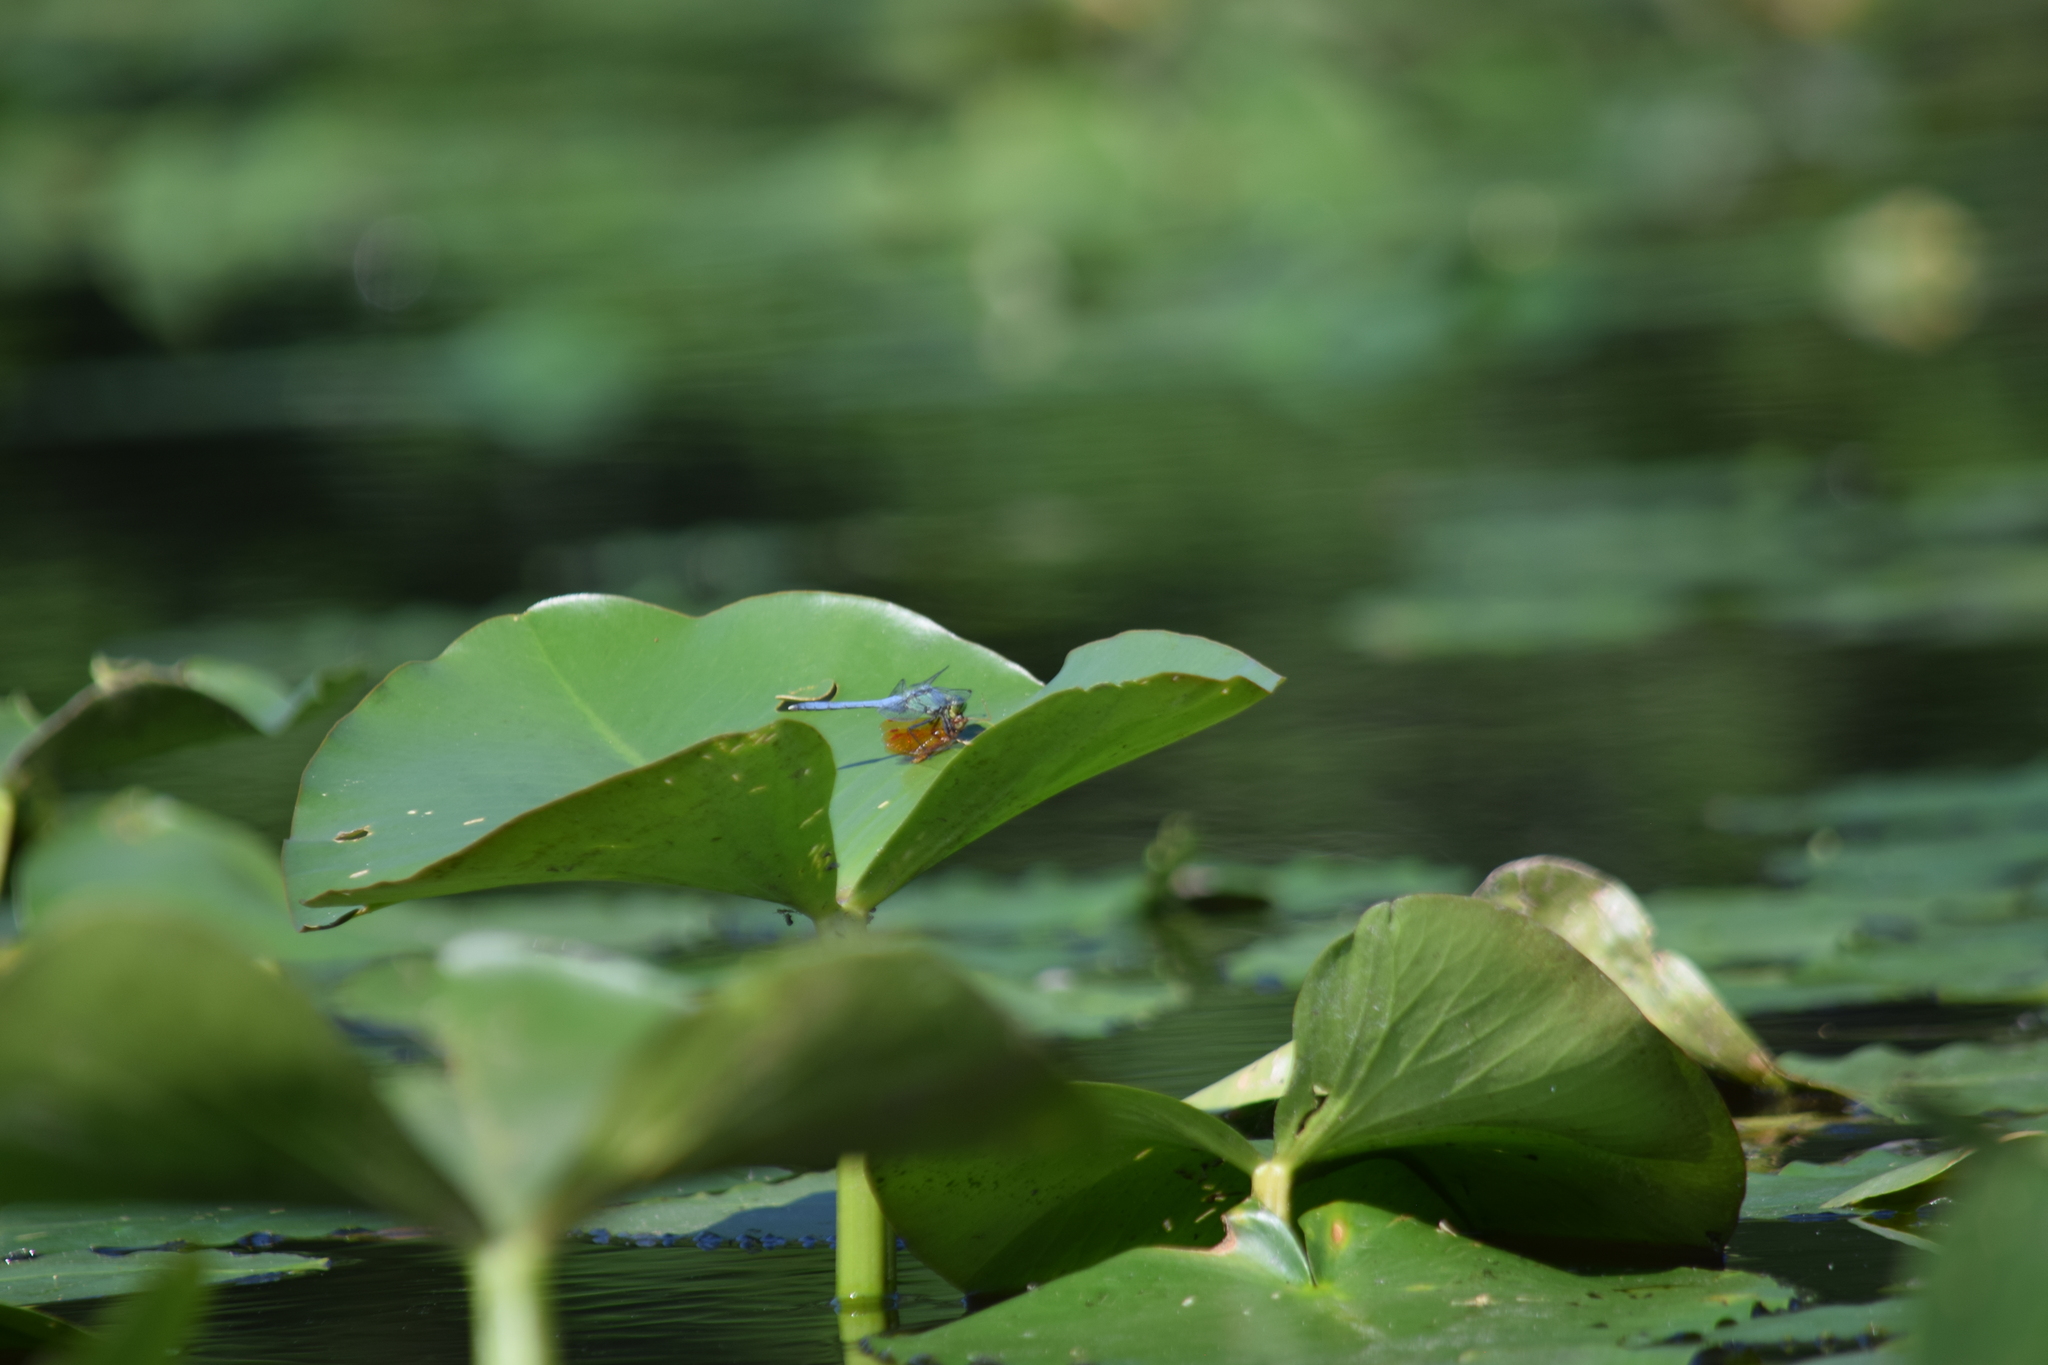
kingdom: Animalia
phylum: Arthropoda
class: Insecta
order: Odonata
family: Libellulidae
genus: Erythemis
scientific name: Erythemis simplicicollis
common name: Eastern pondhawk
